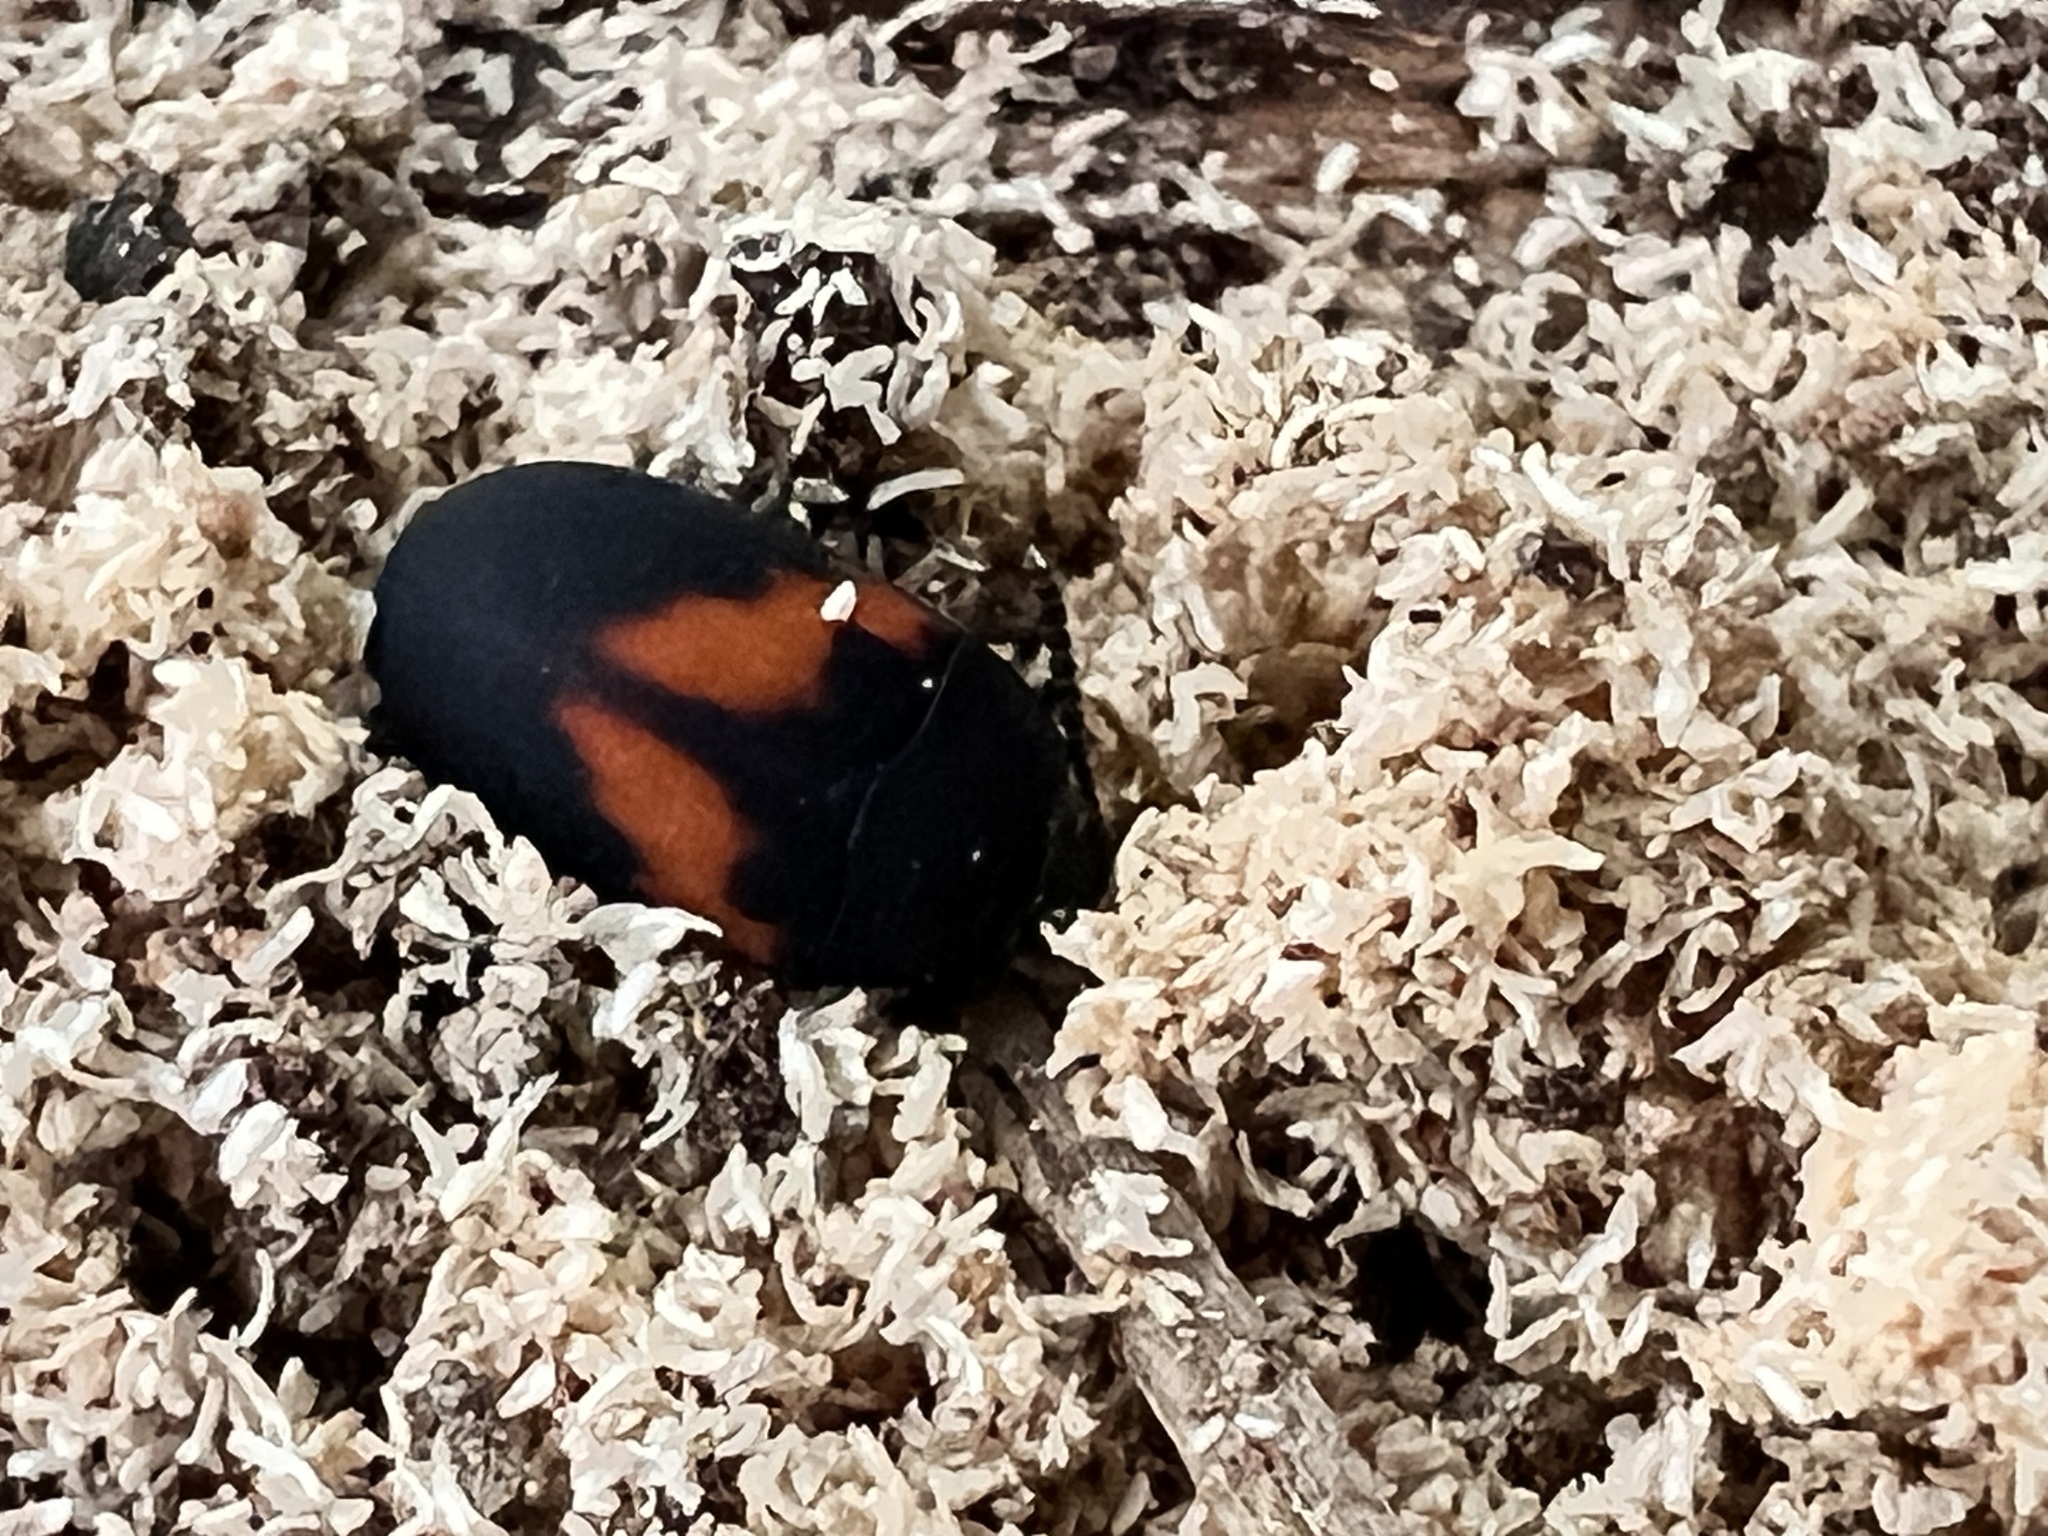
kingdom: Animalia
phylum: Arthropoda
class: Insecta
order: Coleoptera
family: Tenebrionidae
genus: Platydema
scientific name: Platydema elliptica
